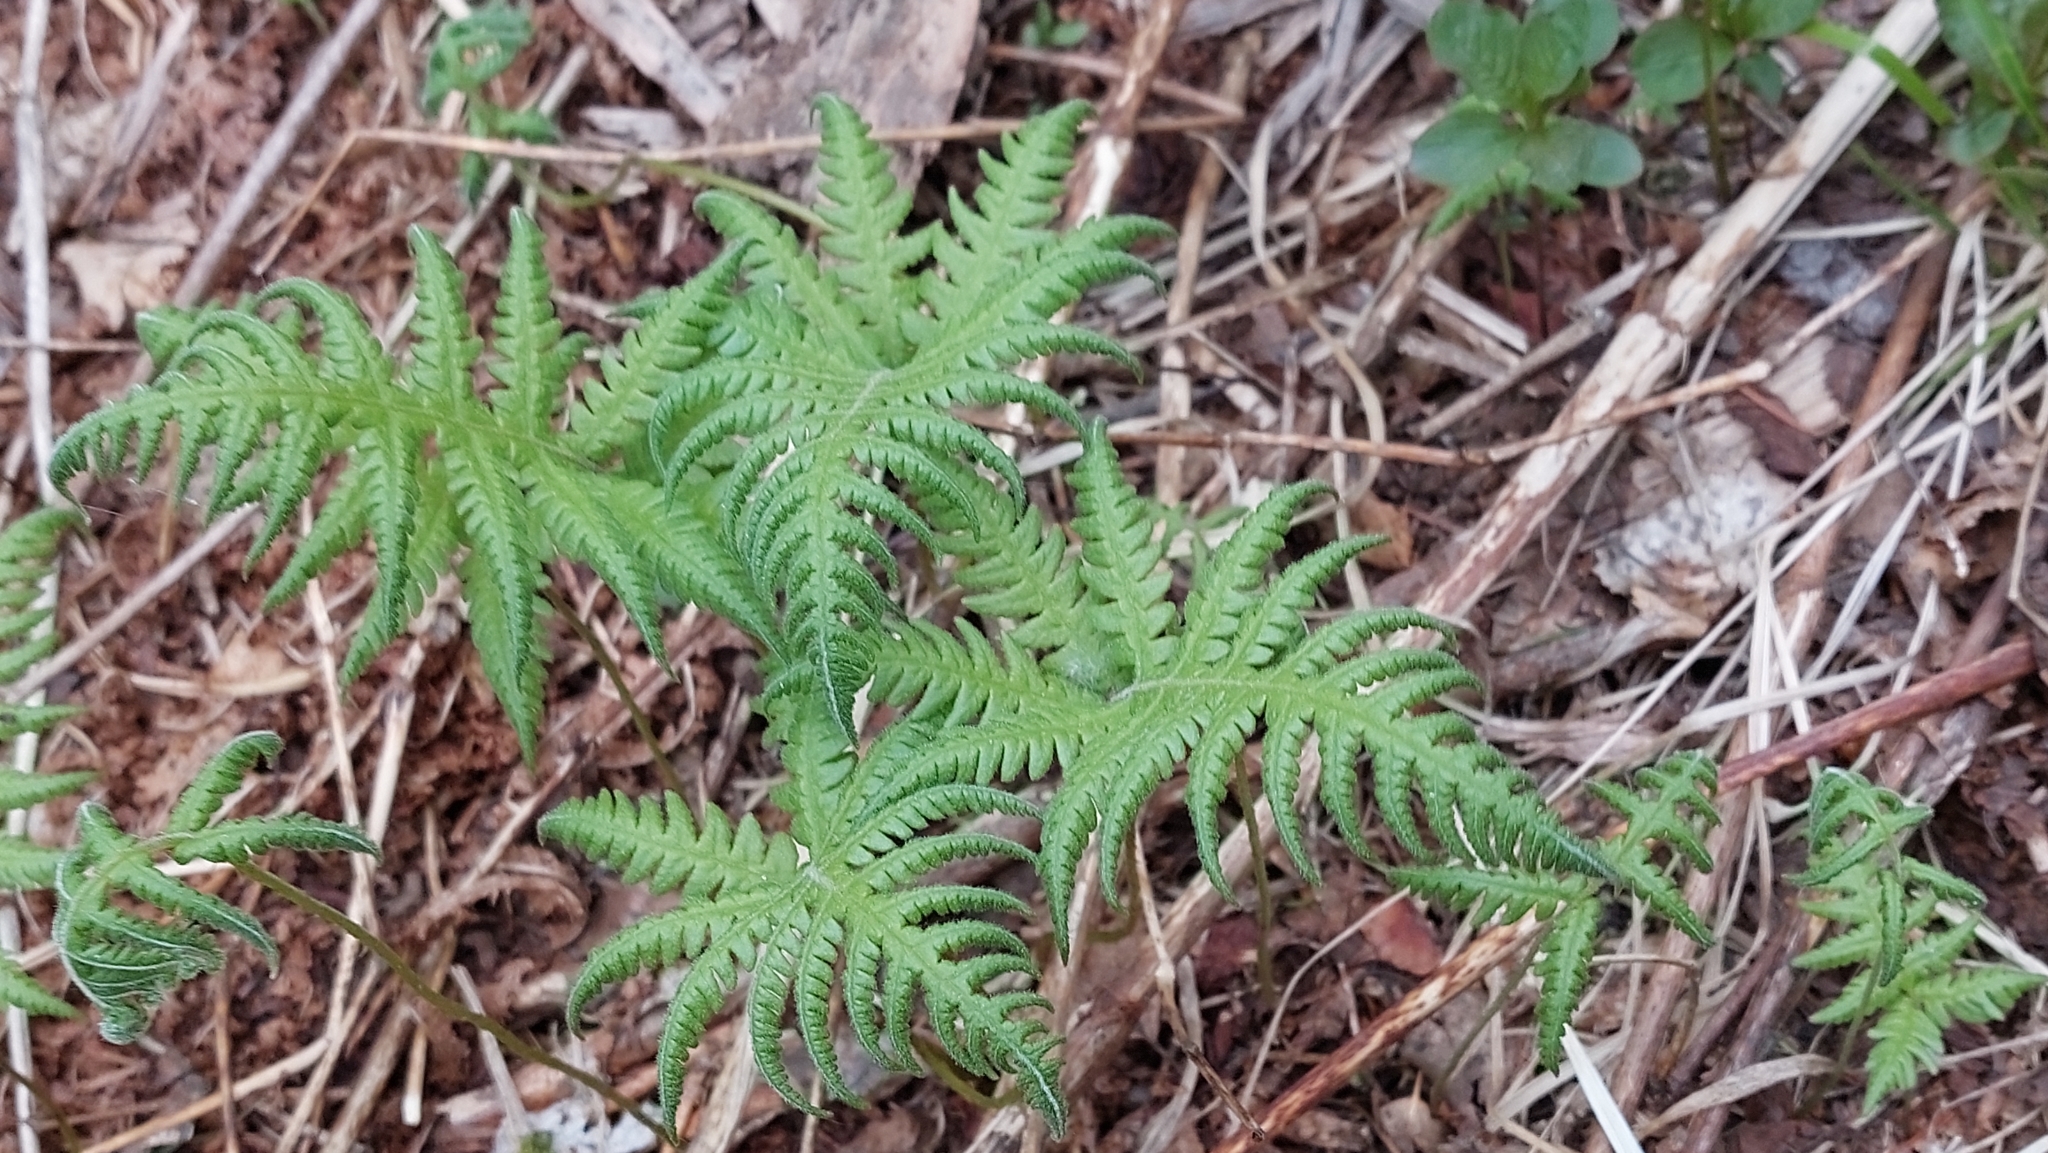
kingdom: Plantae
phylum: Tracheophyta
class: Polypodiopsida
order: Polypodiales
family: Thelypteridaceae
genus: Phegopteris
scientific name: Phegopteris connectilis
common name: Beech fern
